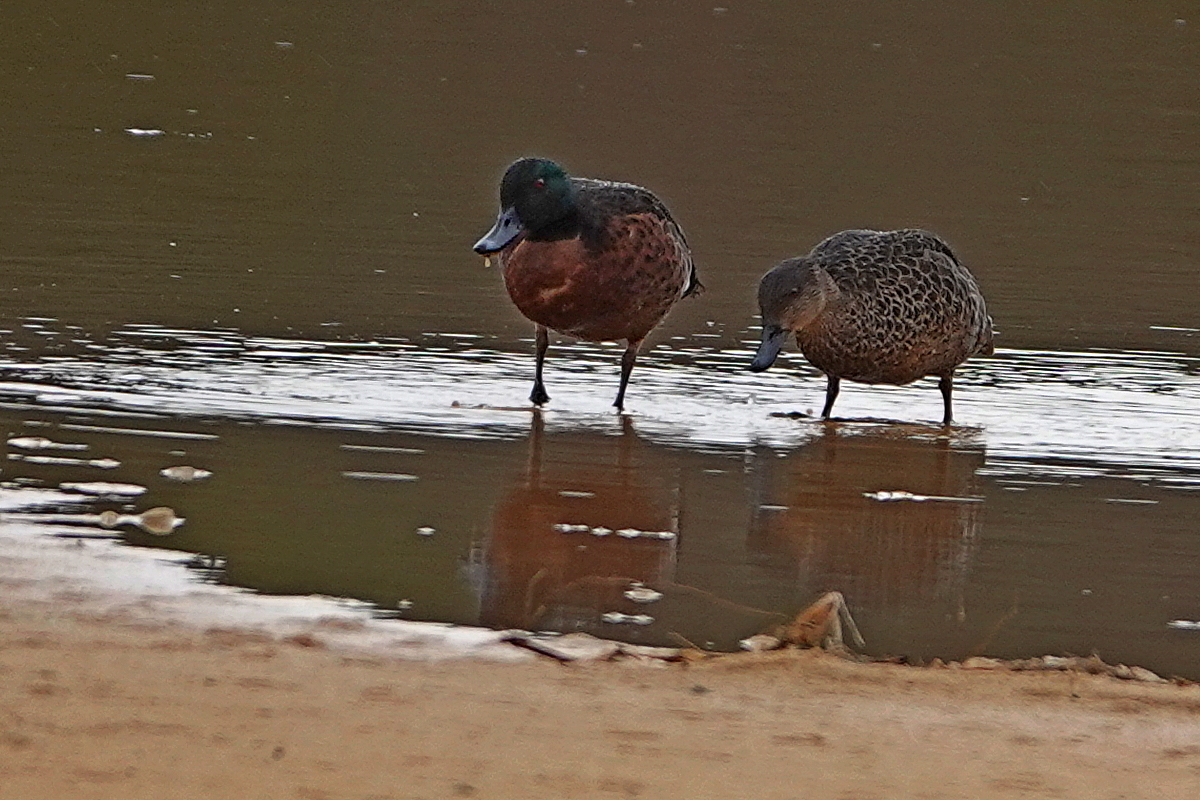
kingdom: Animalia
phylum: Chordata
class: Aves
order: Anseriformes
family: Anatidae
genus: Anas
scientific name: Anas castanea
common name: Chestnut teal
